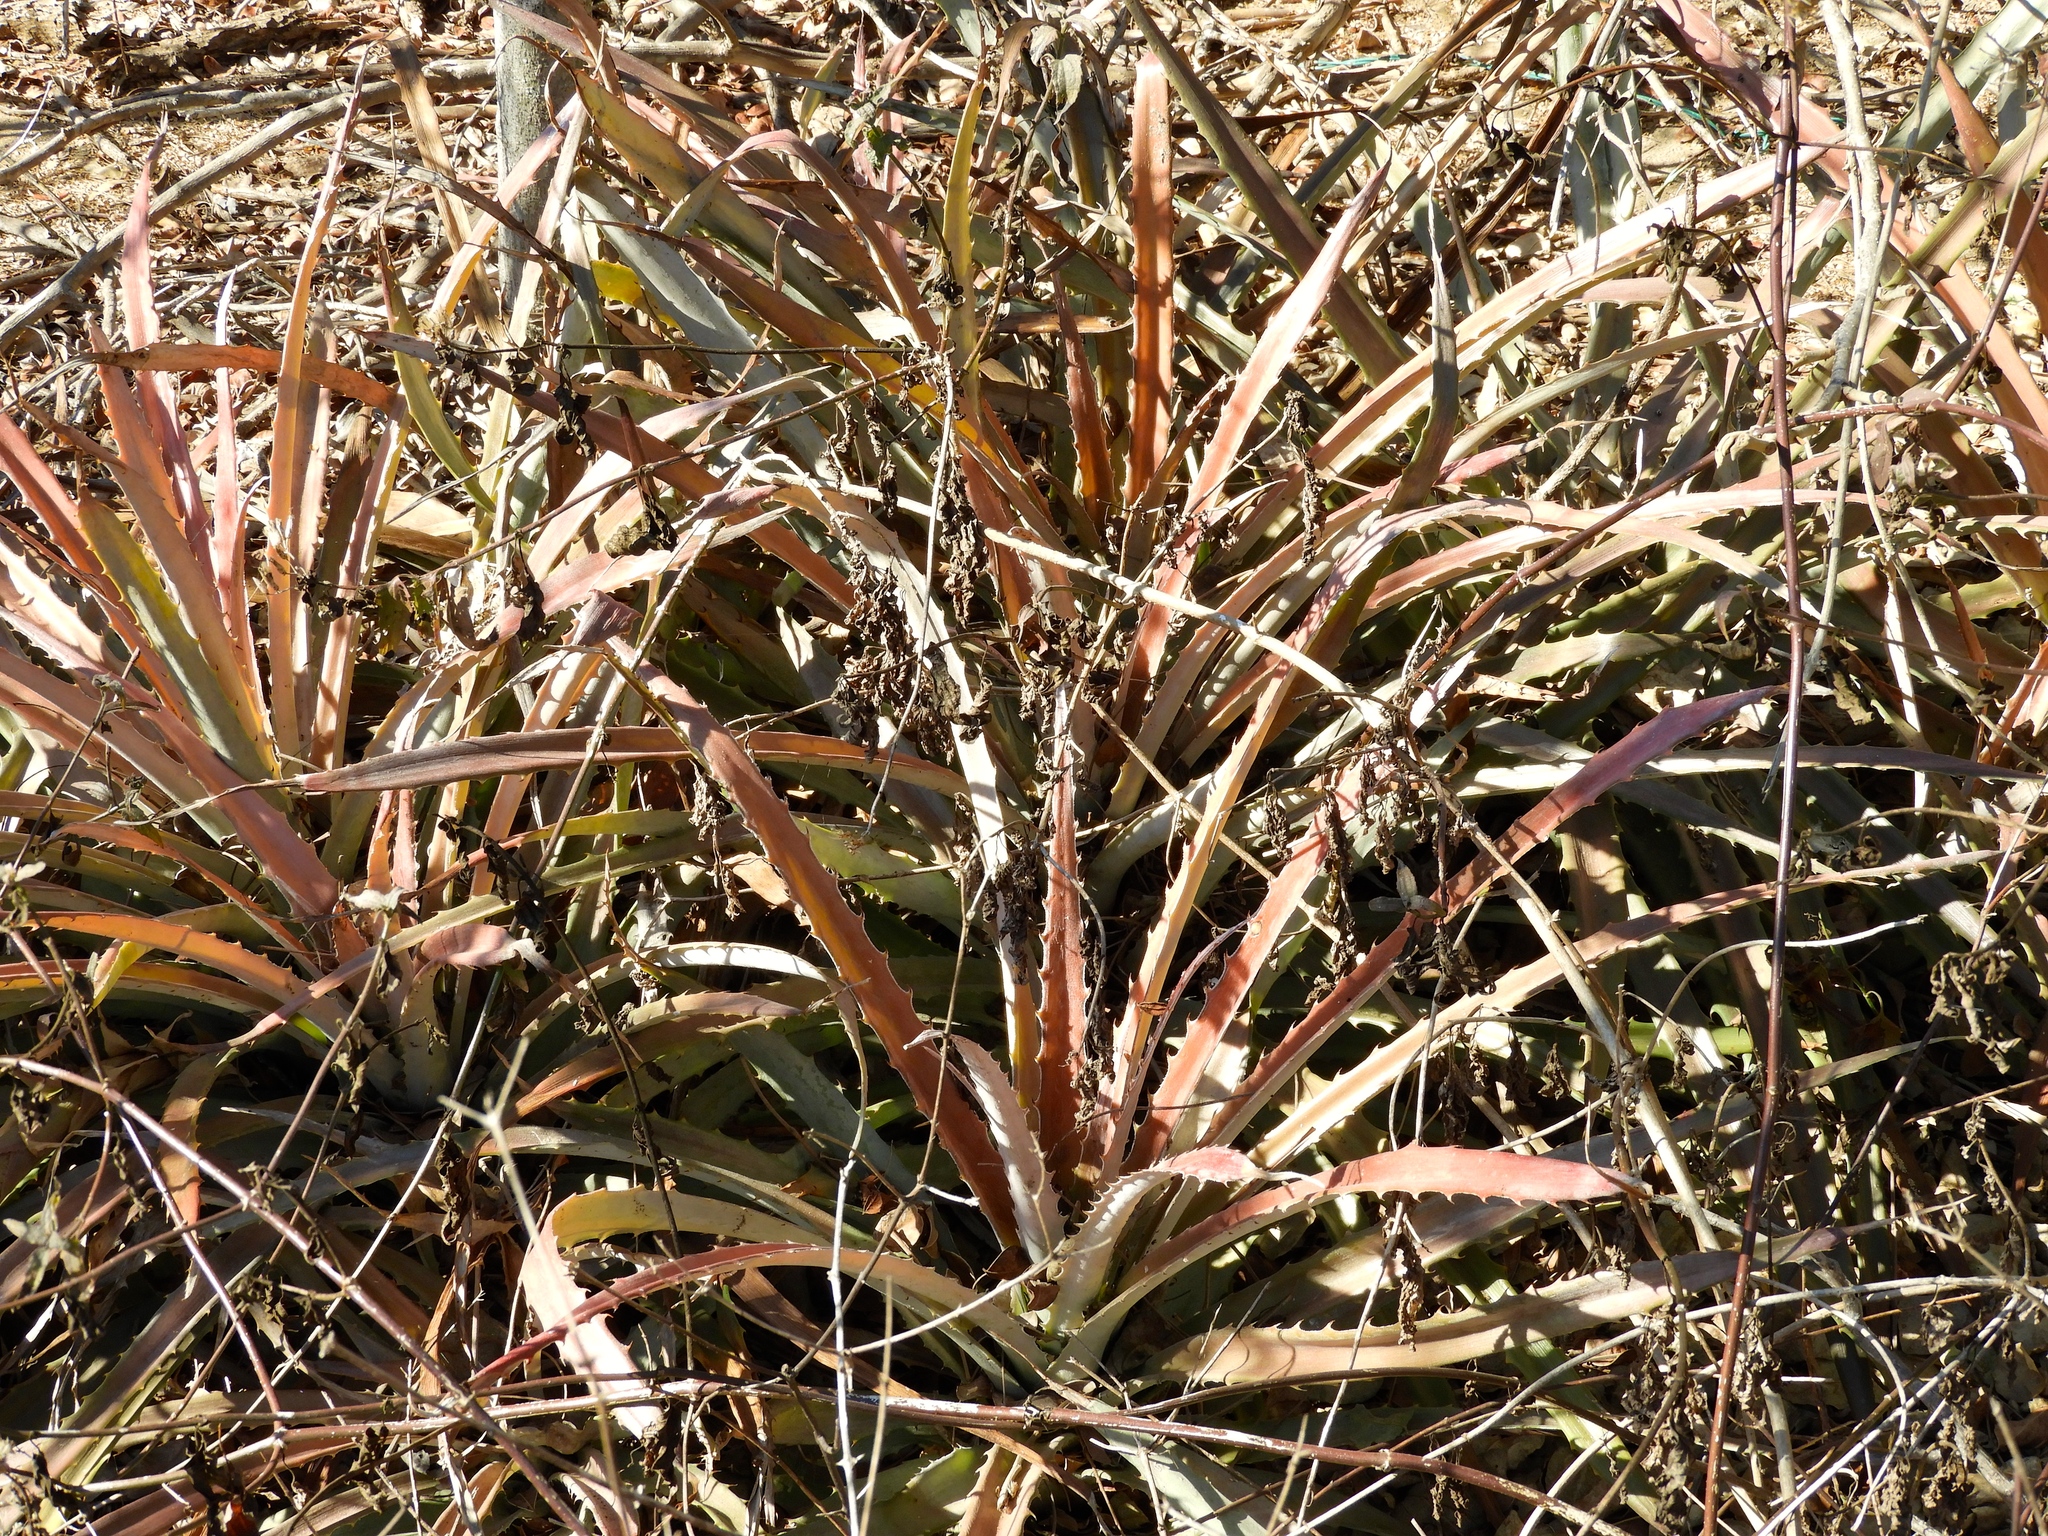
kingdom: Plantae
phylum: Tracheophyta
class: Liliopsida
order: Poales
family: Bromeliaceae
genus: Bromelia
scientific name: Bromelia pinguin
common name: Pinguin
